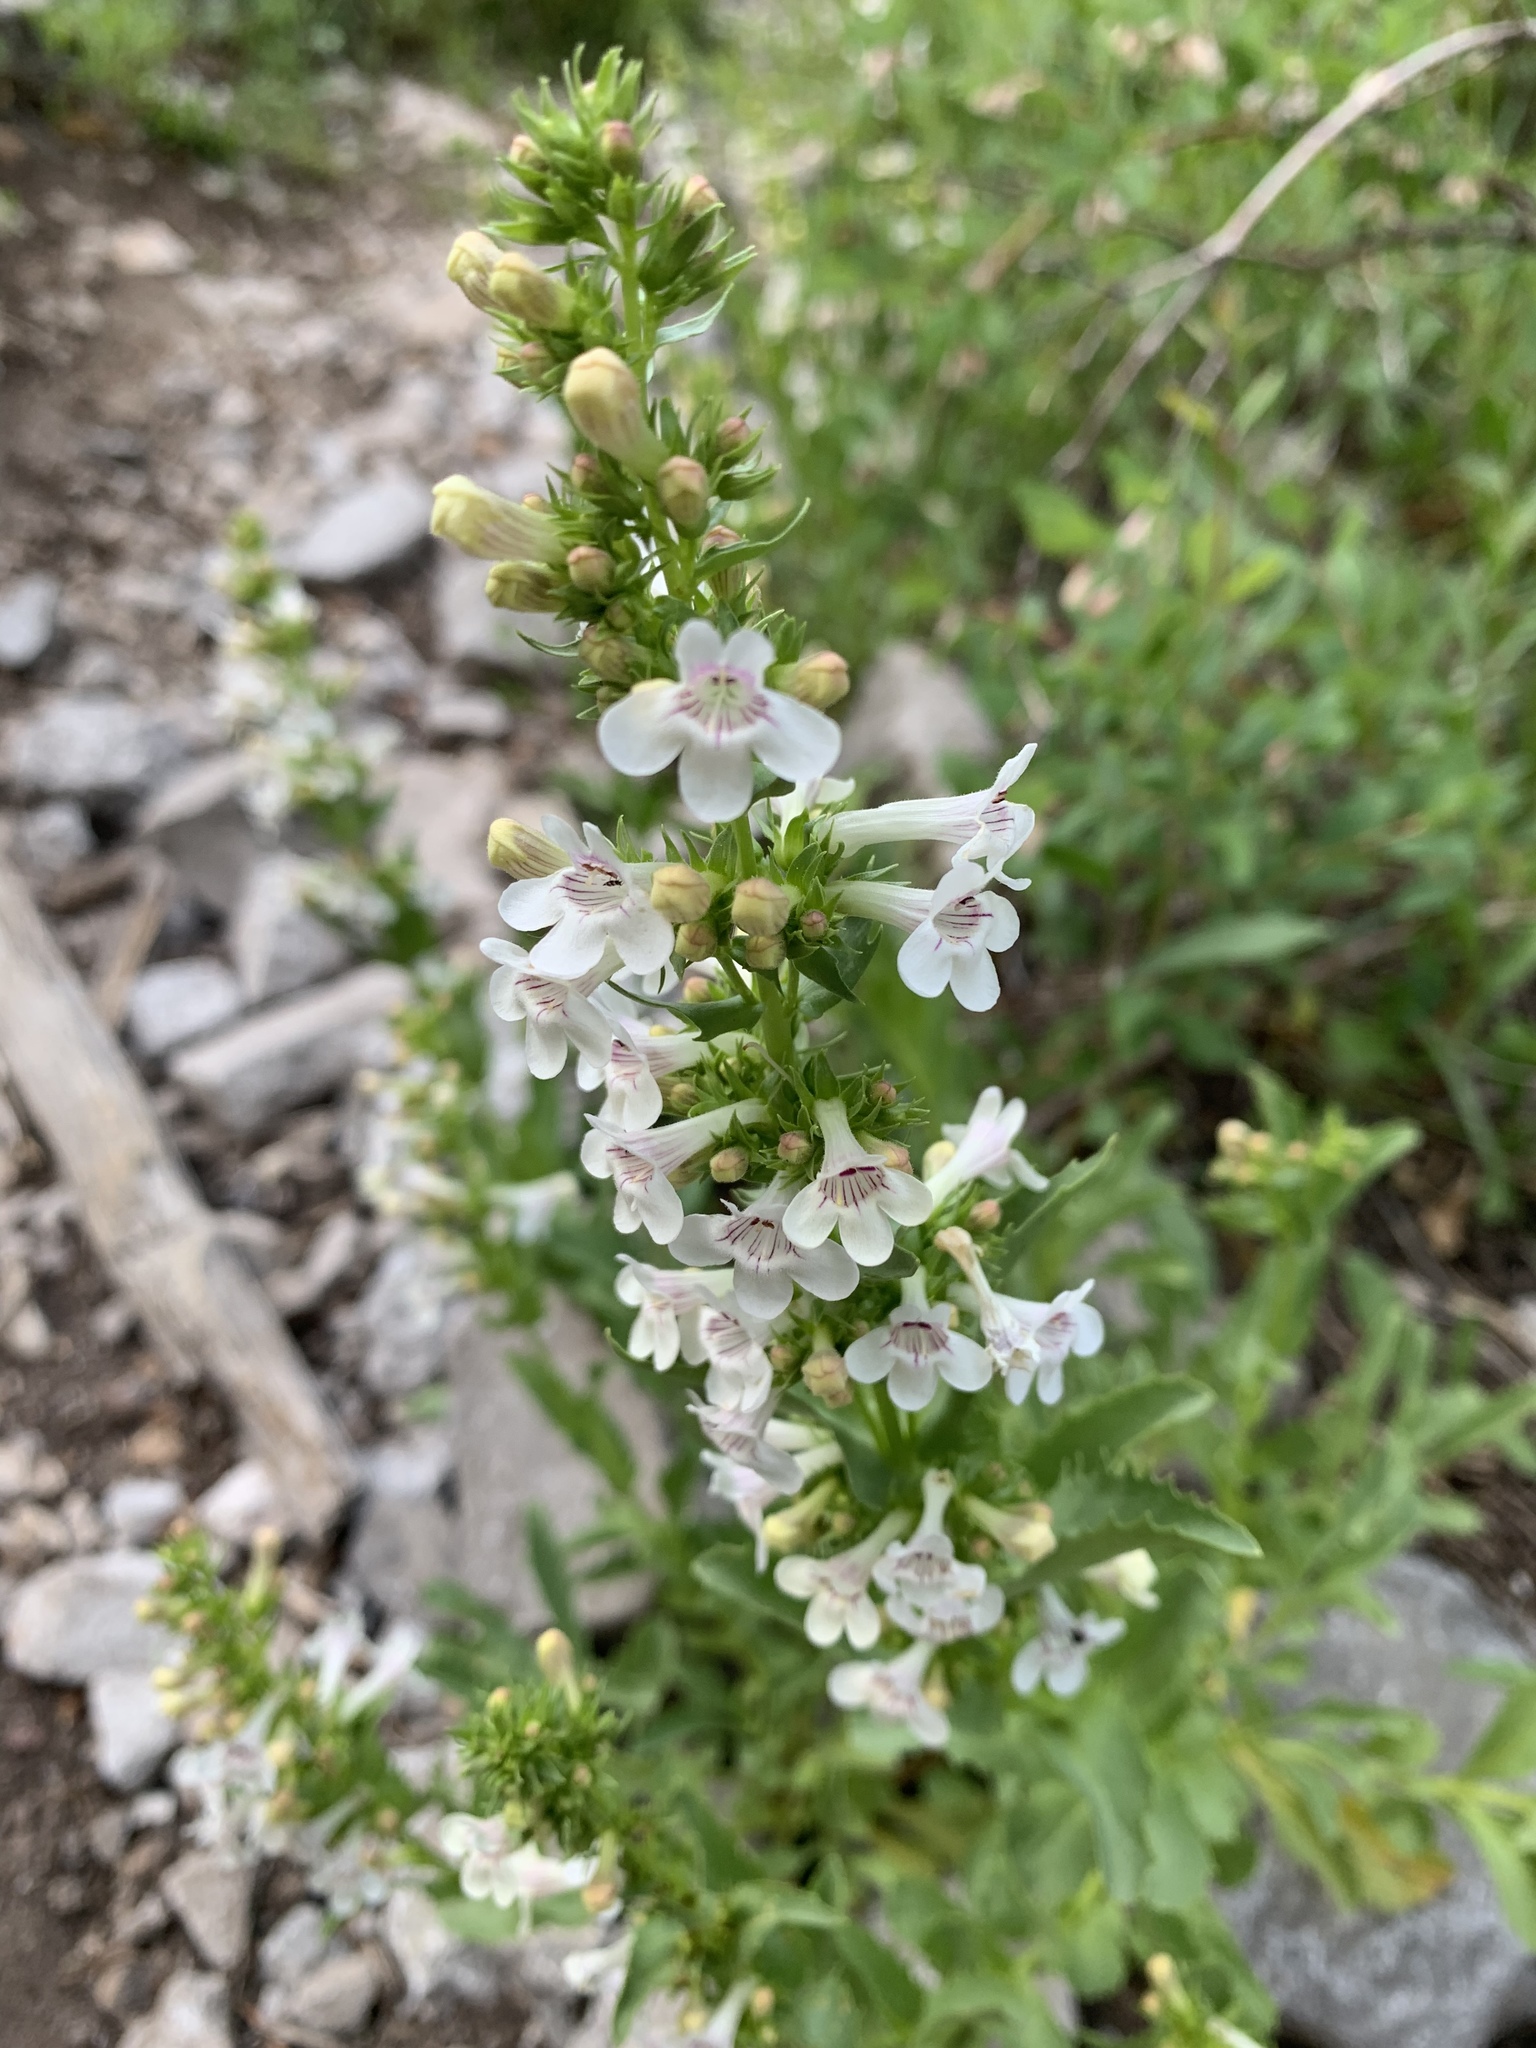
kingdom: Plantae
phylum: Tracheophyta
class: Magnoliopsida
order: Lamiales
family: Plantaginaceae
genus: Penstemon
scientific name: Penstemon deustus
